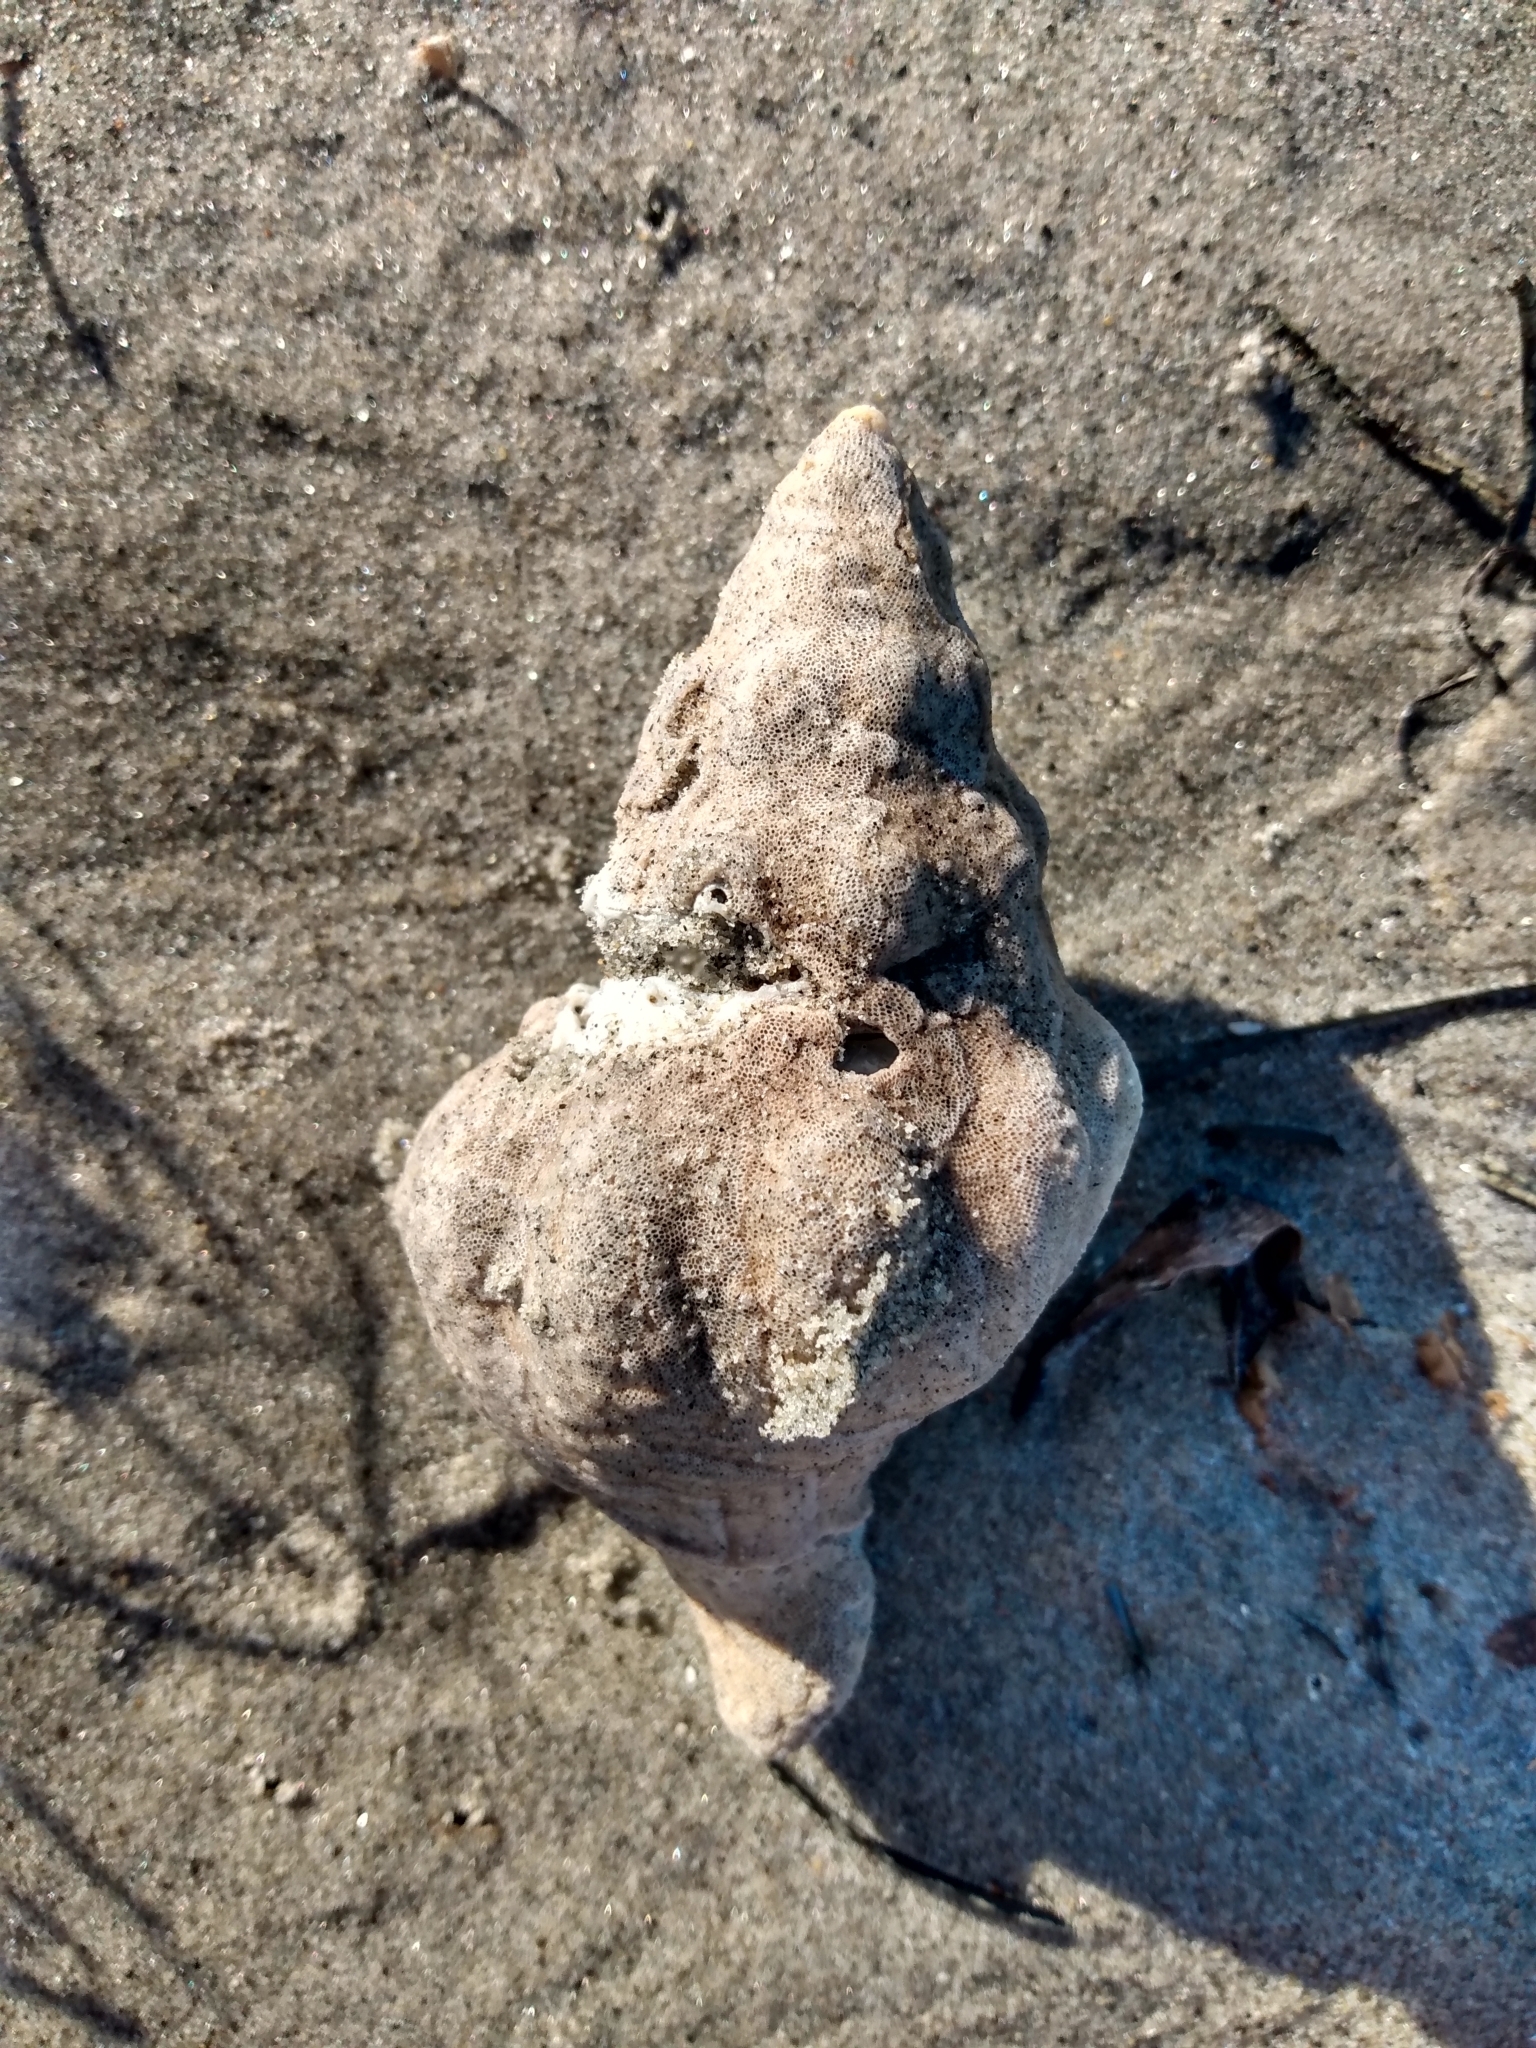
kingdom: Animalia
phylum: Mollusca
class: Gastropoda
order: Neogastropoda
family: Austrosiphonidae
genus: Kelletia
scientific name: Kelletia kelletii
